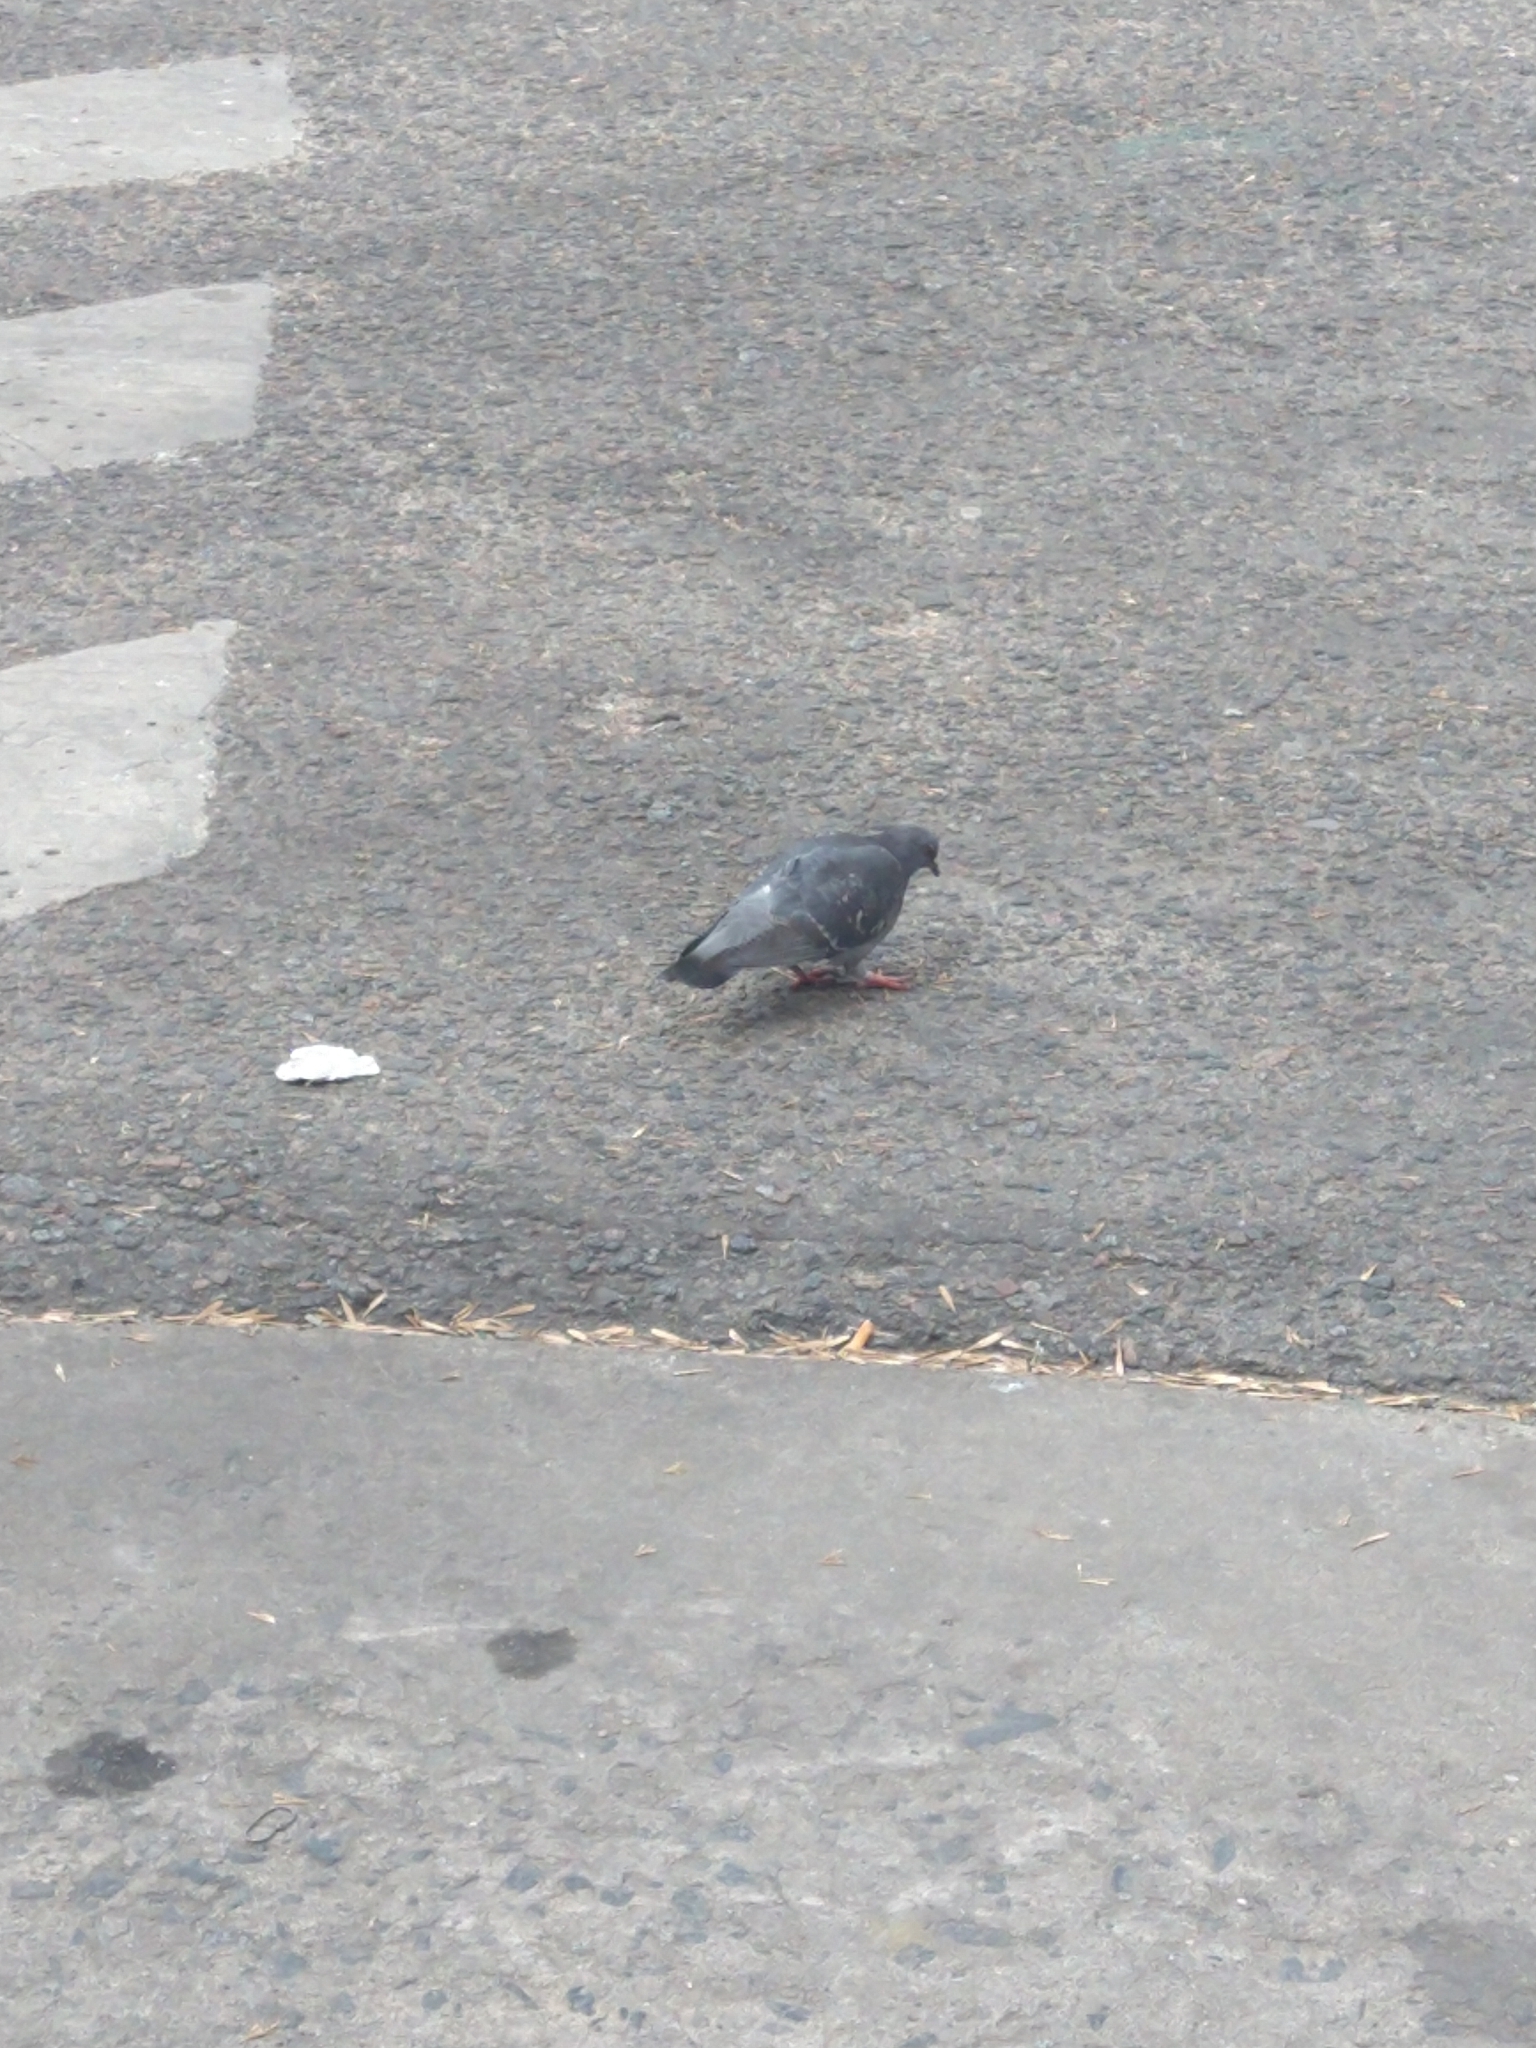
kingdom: Animalia
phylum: Chordata
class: Aves
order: Columbiformes
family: Columbidae
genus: Columba
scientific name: Columba livia
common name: Rock pigeon
